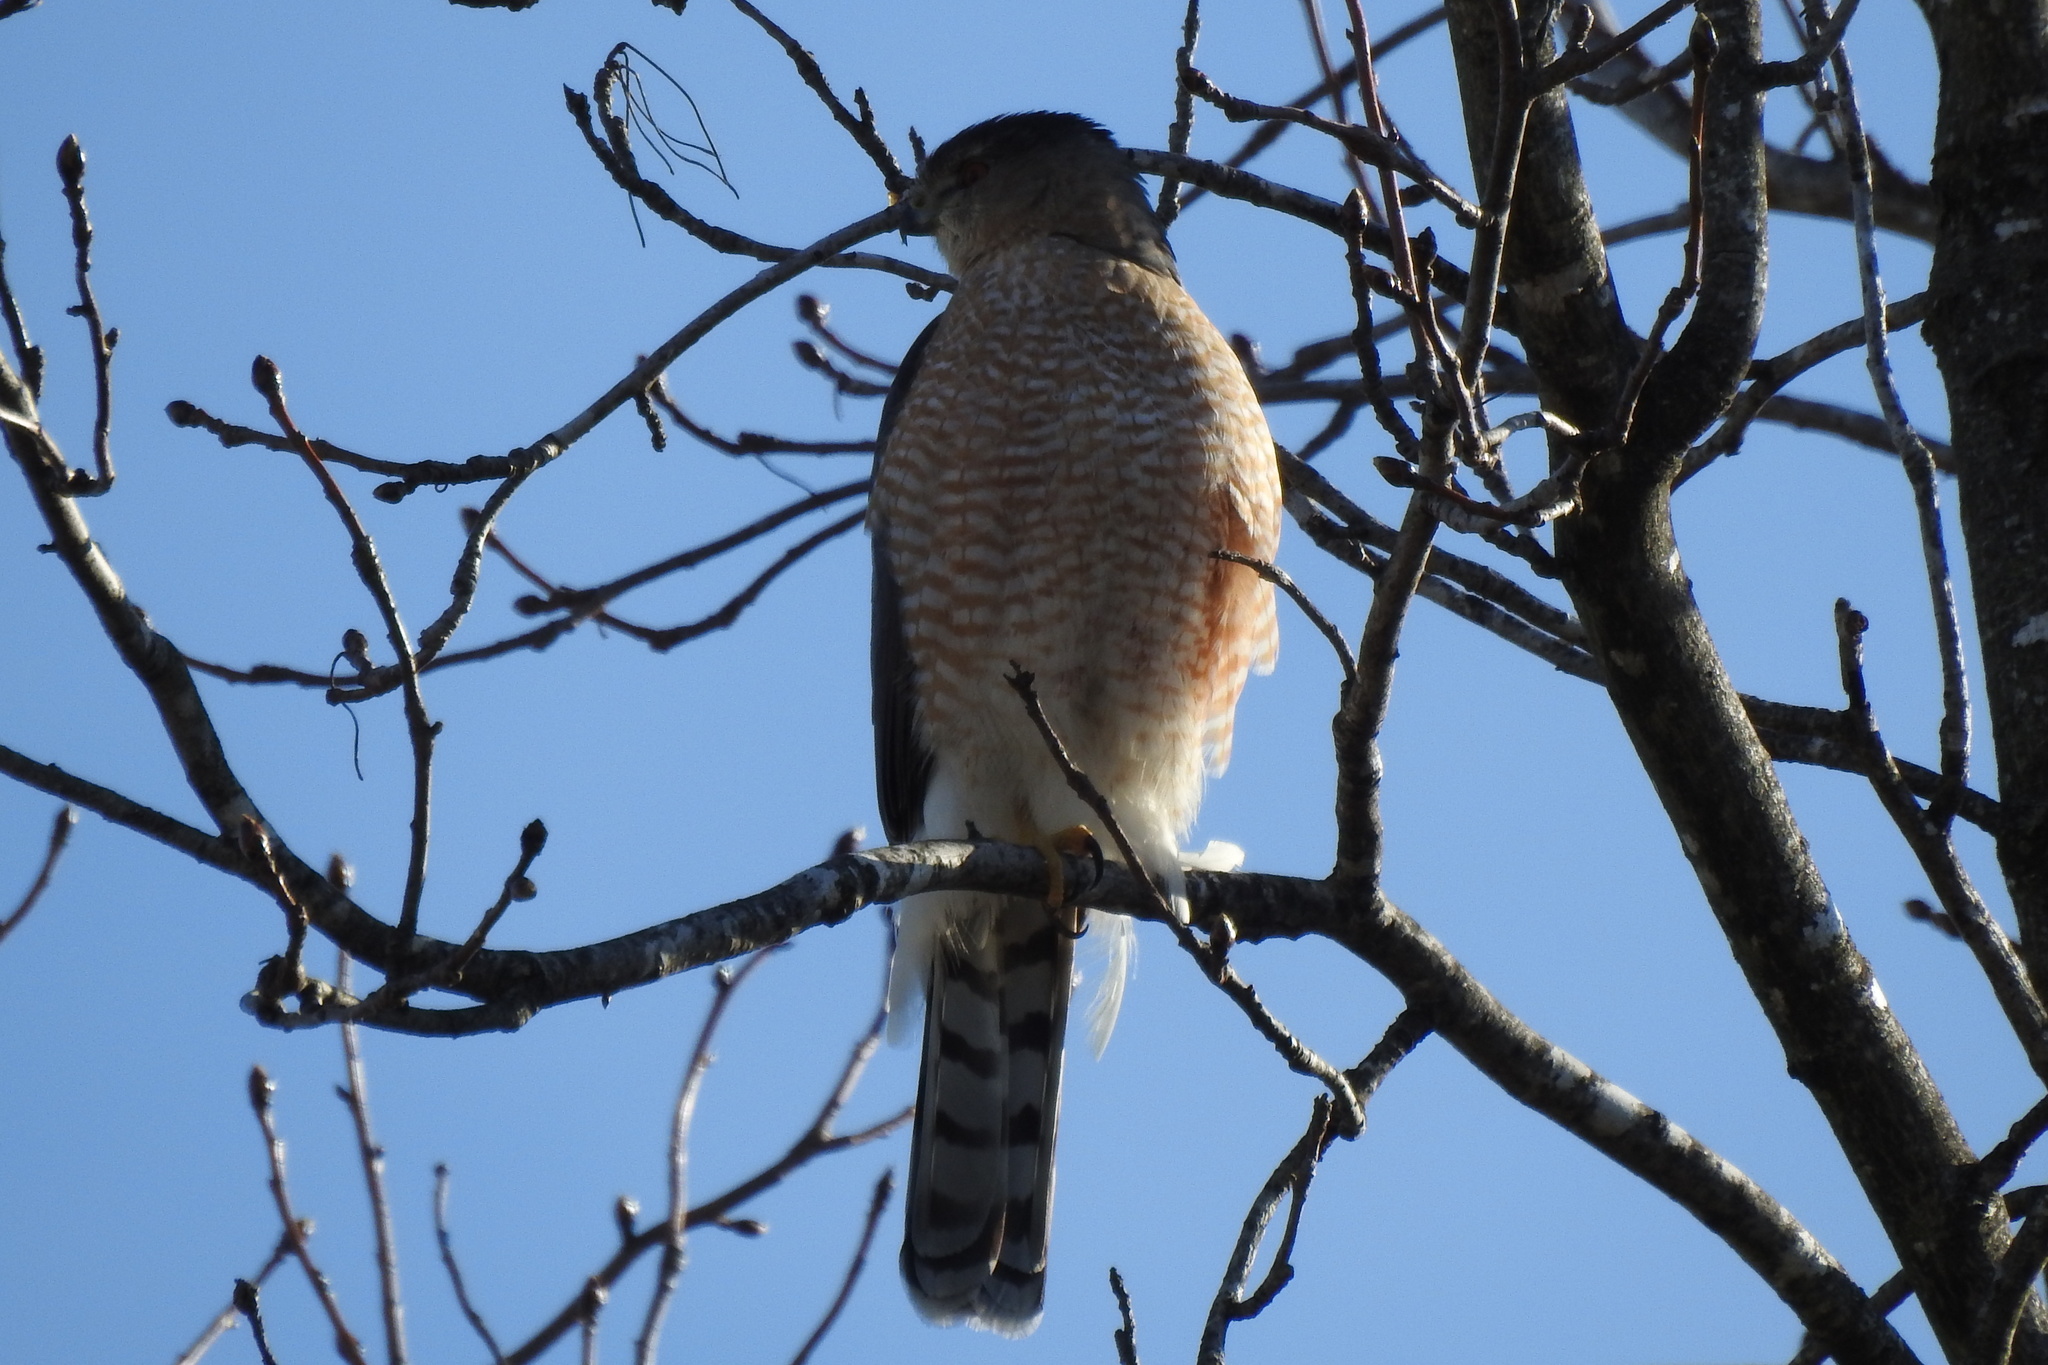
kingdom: Animalia
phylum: Chordata
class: Aves
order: Accipitriformes
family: Accipitridae
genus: Accipiter
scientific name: Accipiter cooperii
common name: Cooper's hawk
